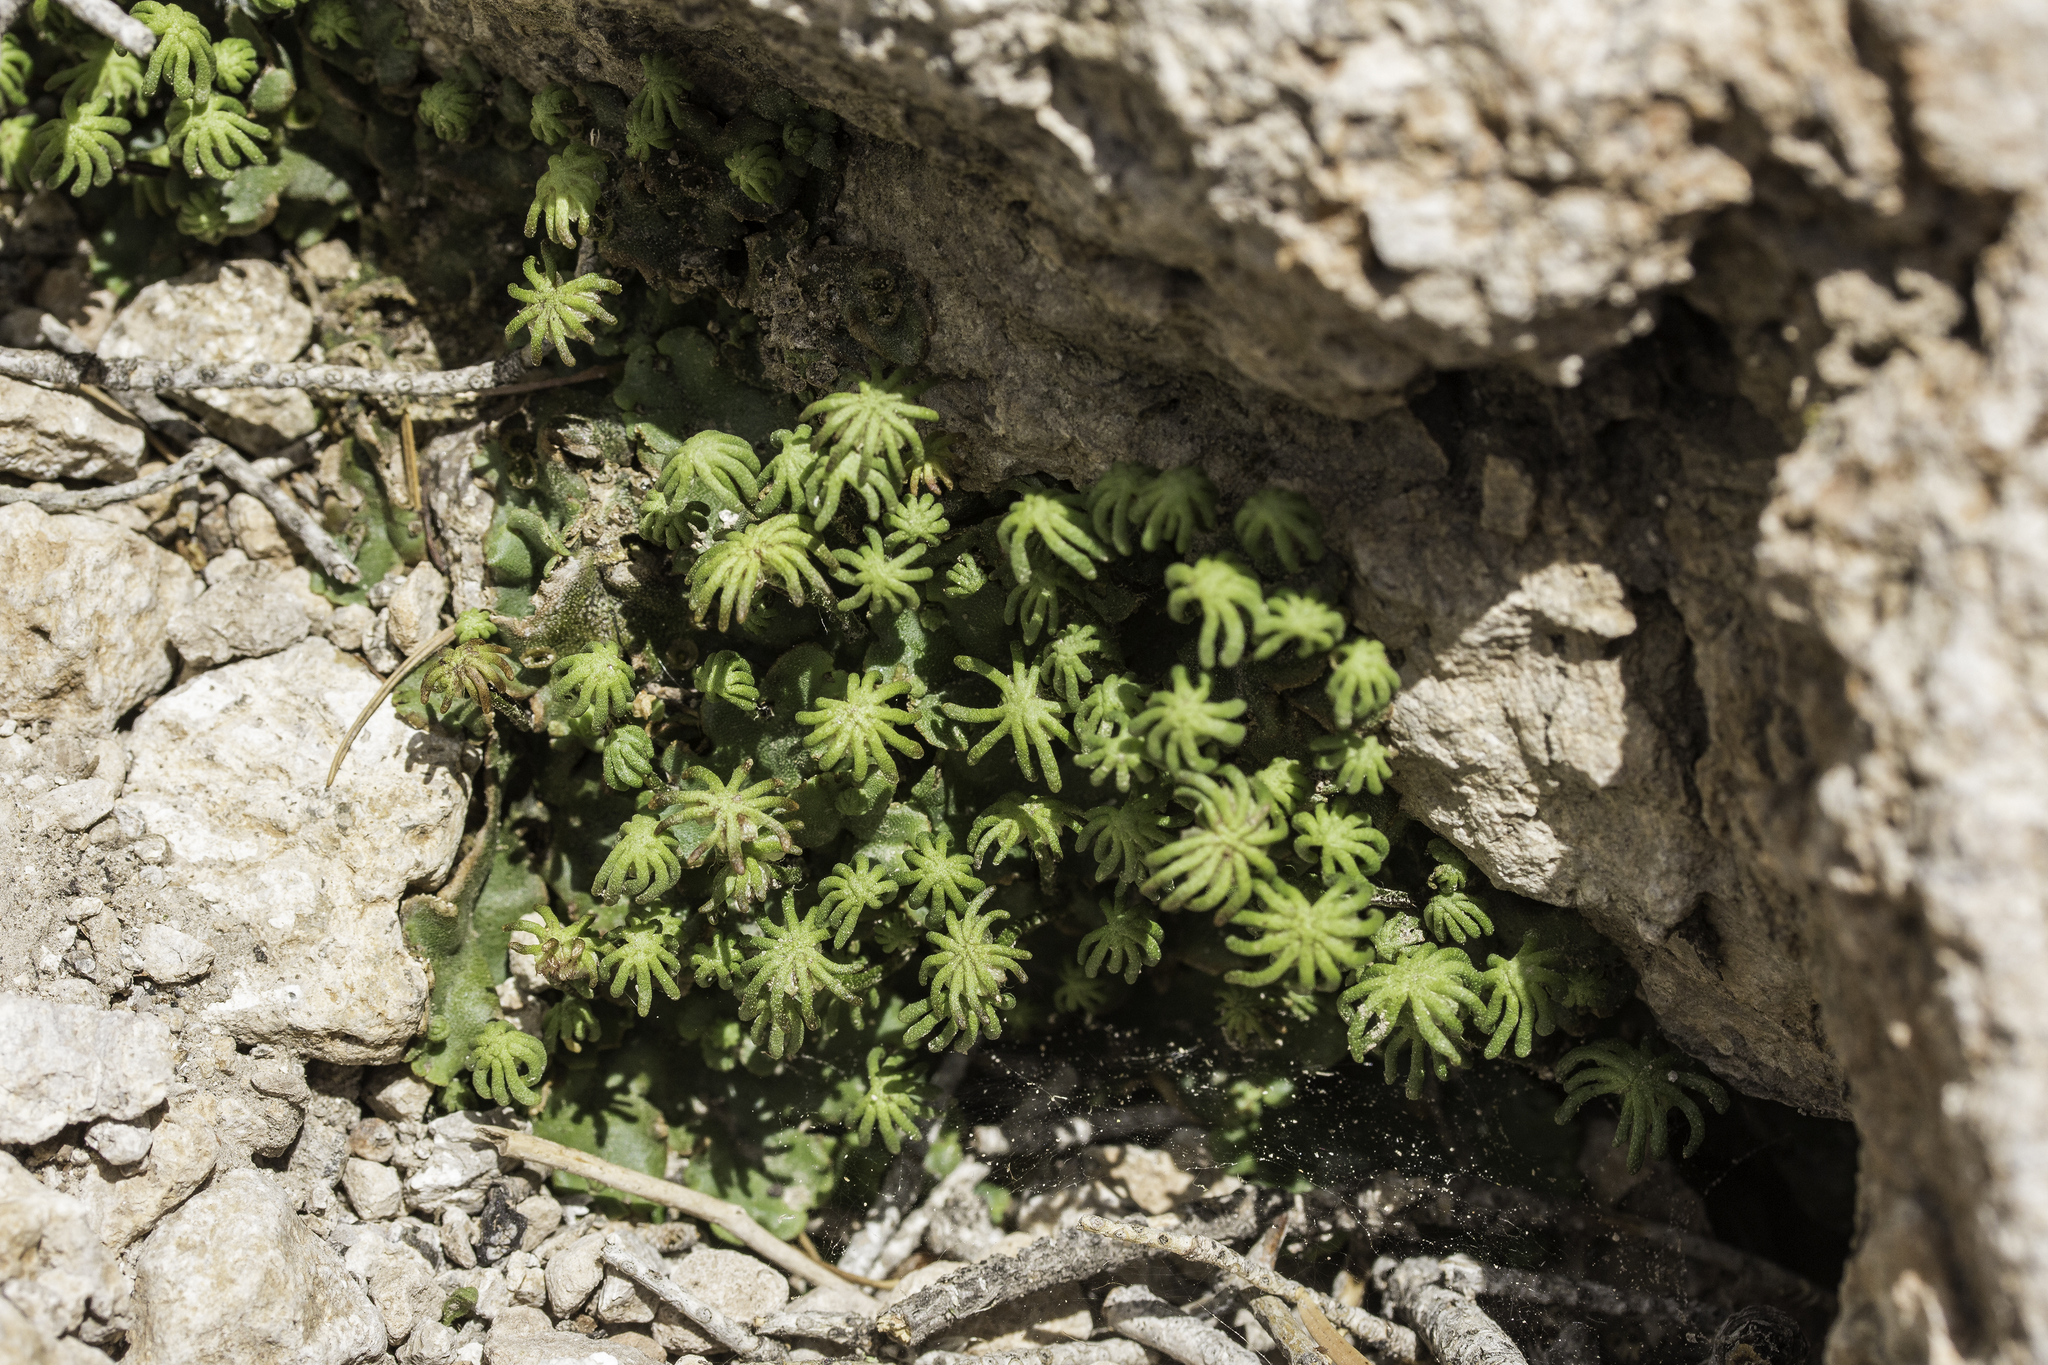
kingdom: Plantae
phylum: Marchantiophyta
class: Marchantiopsida
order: Marchantiales
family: Marchantiaceae
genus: Marchantia
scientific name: Marchantia polymorpha
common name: Common liverwort
